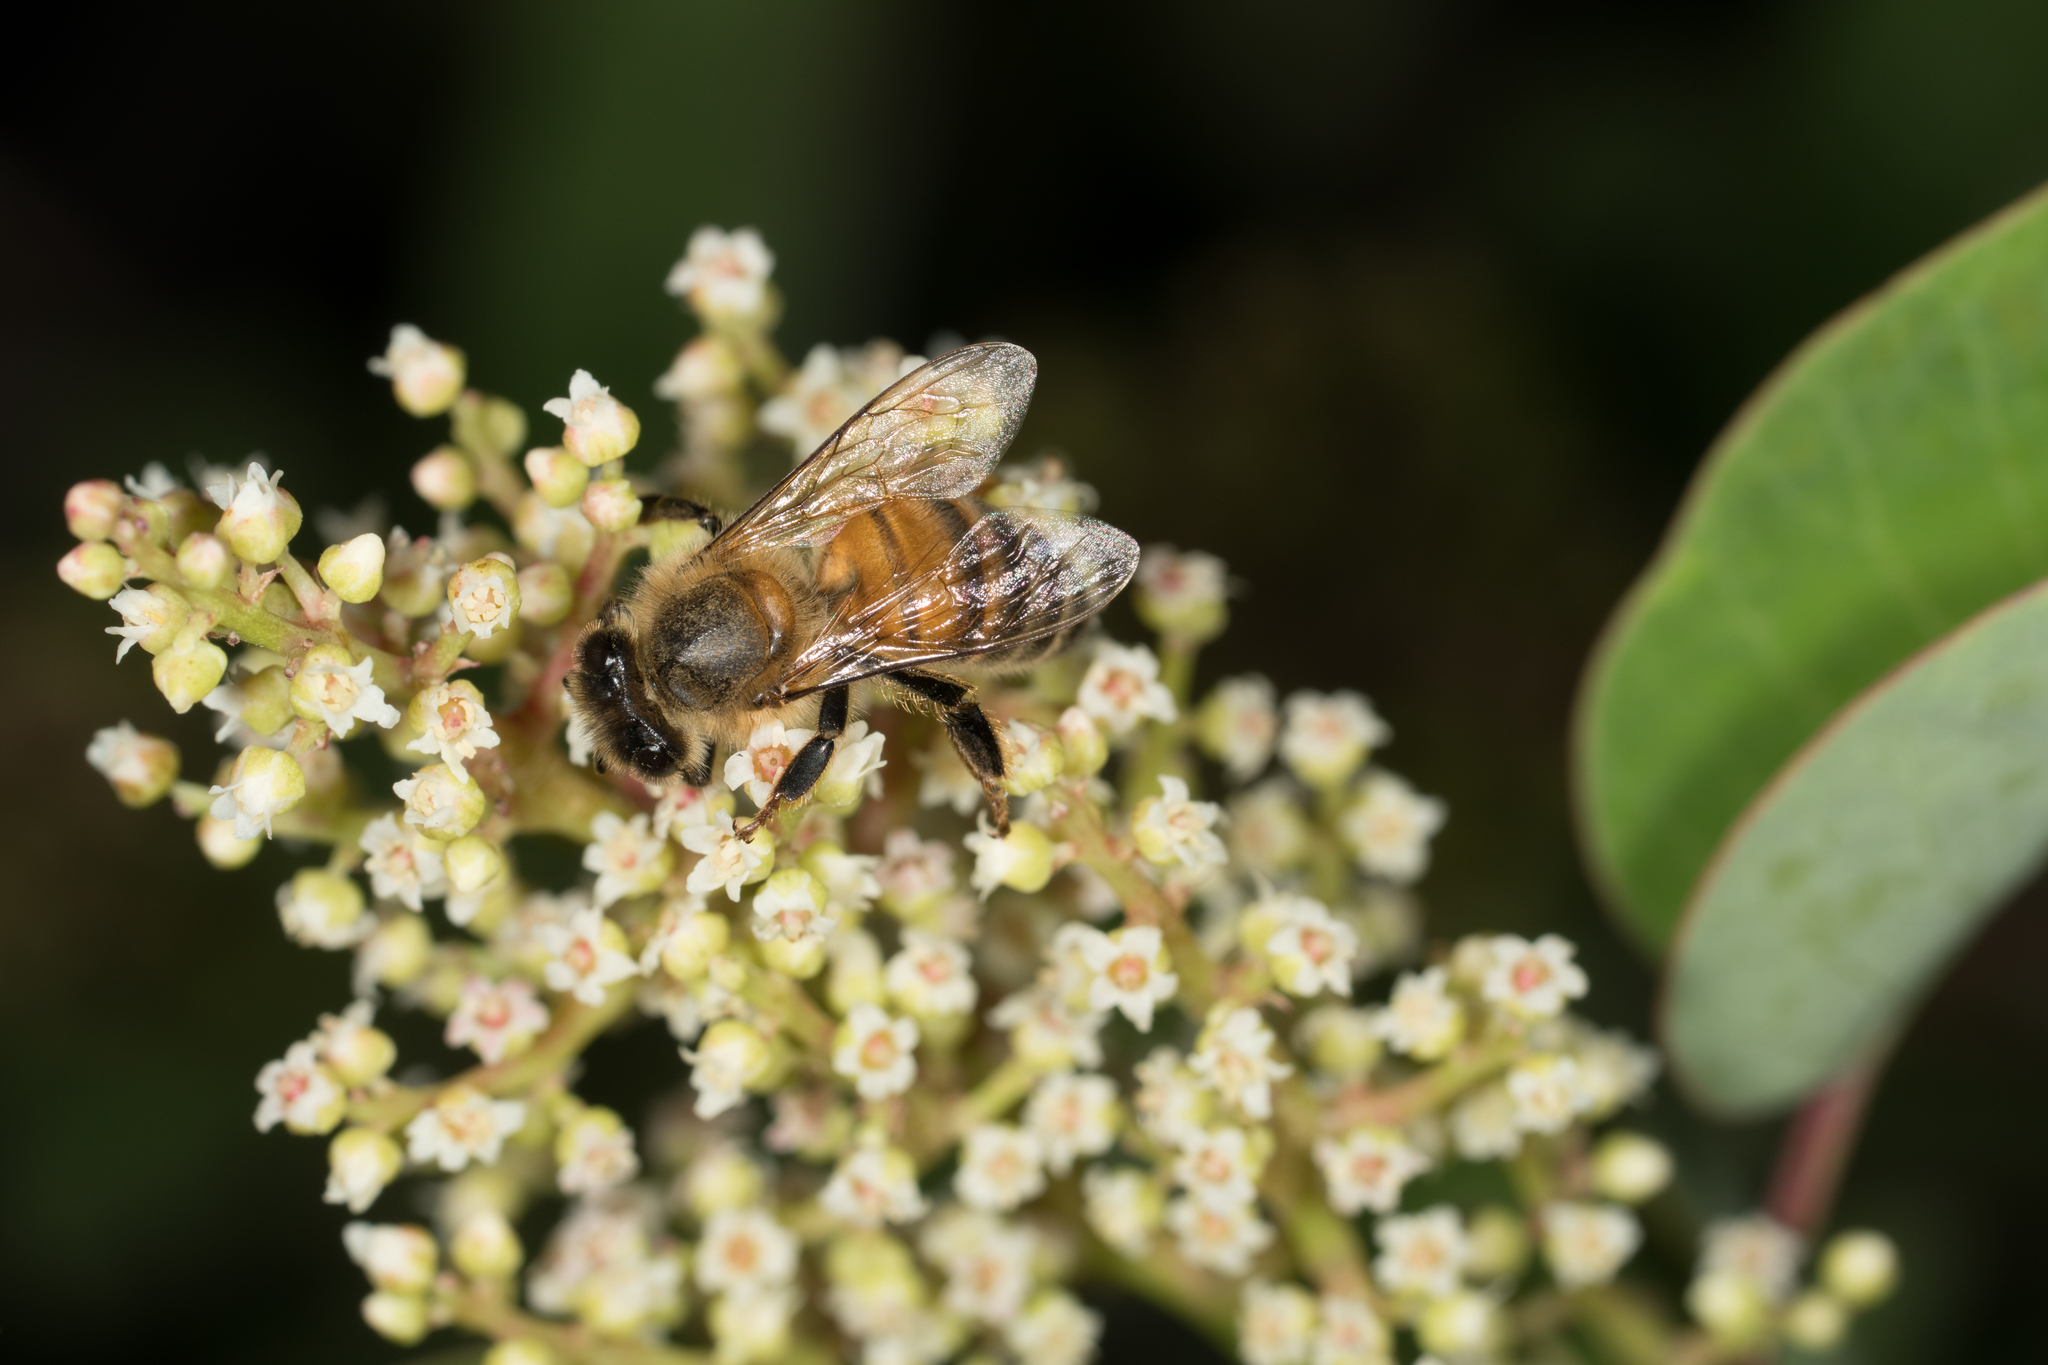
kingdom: Animalia
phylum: Arthropoda
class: Insecta
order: Hymenoptera
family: Apidae
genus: Apis
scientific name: Apis mellifera
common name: Honey bee
